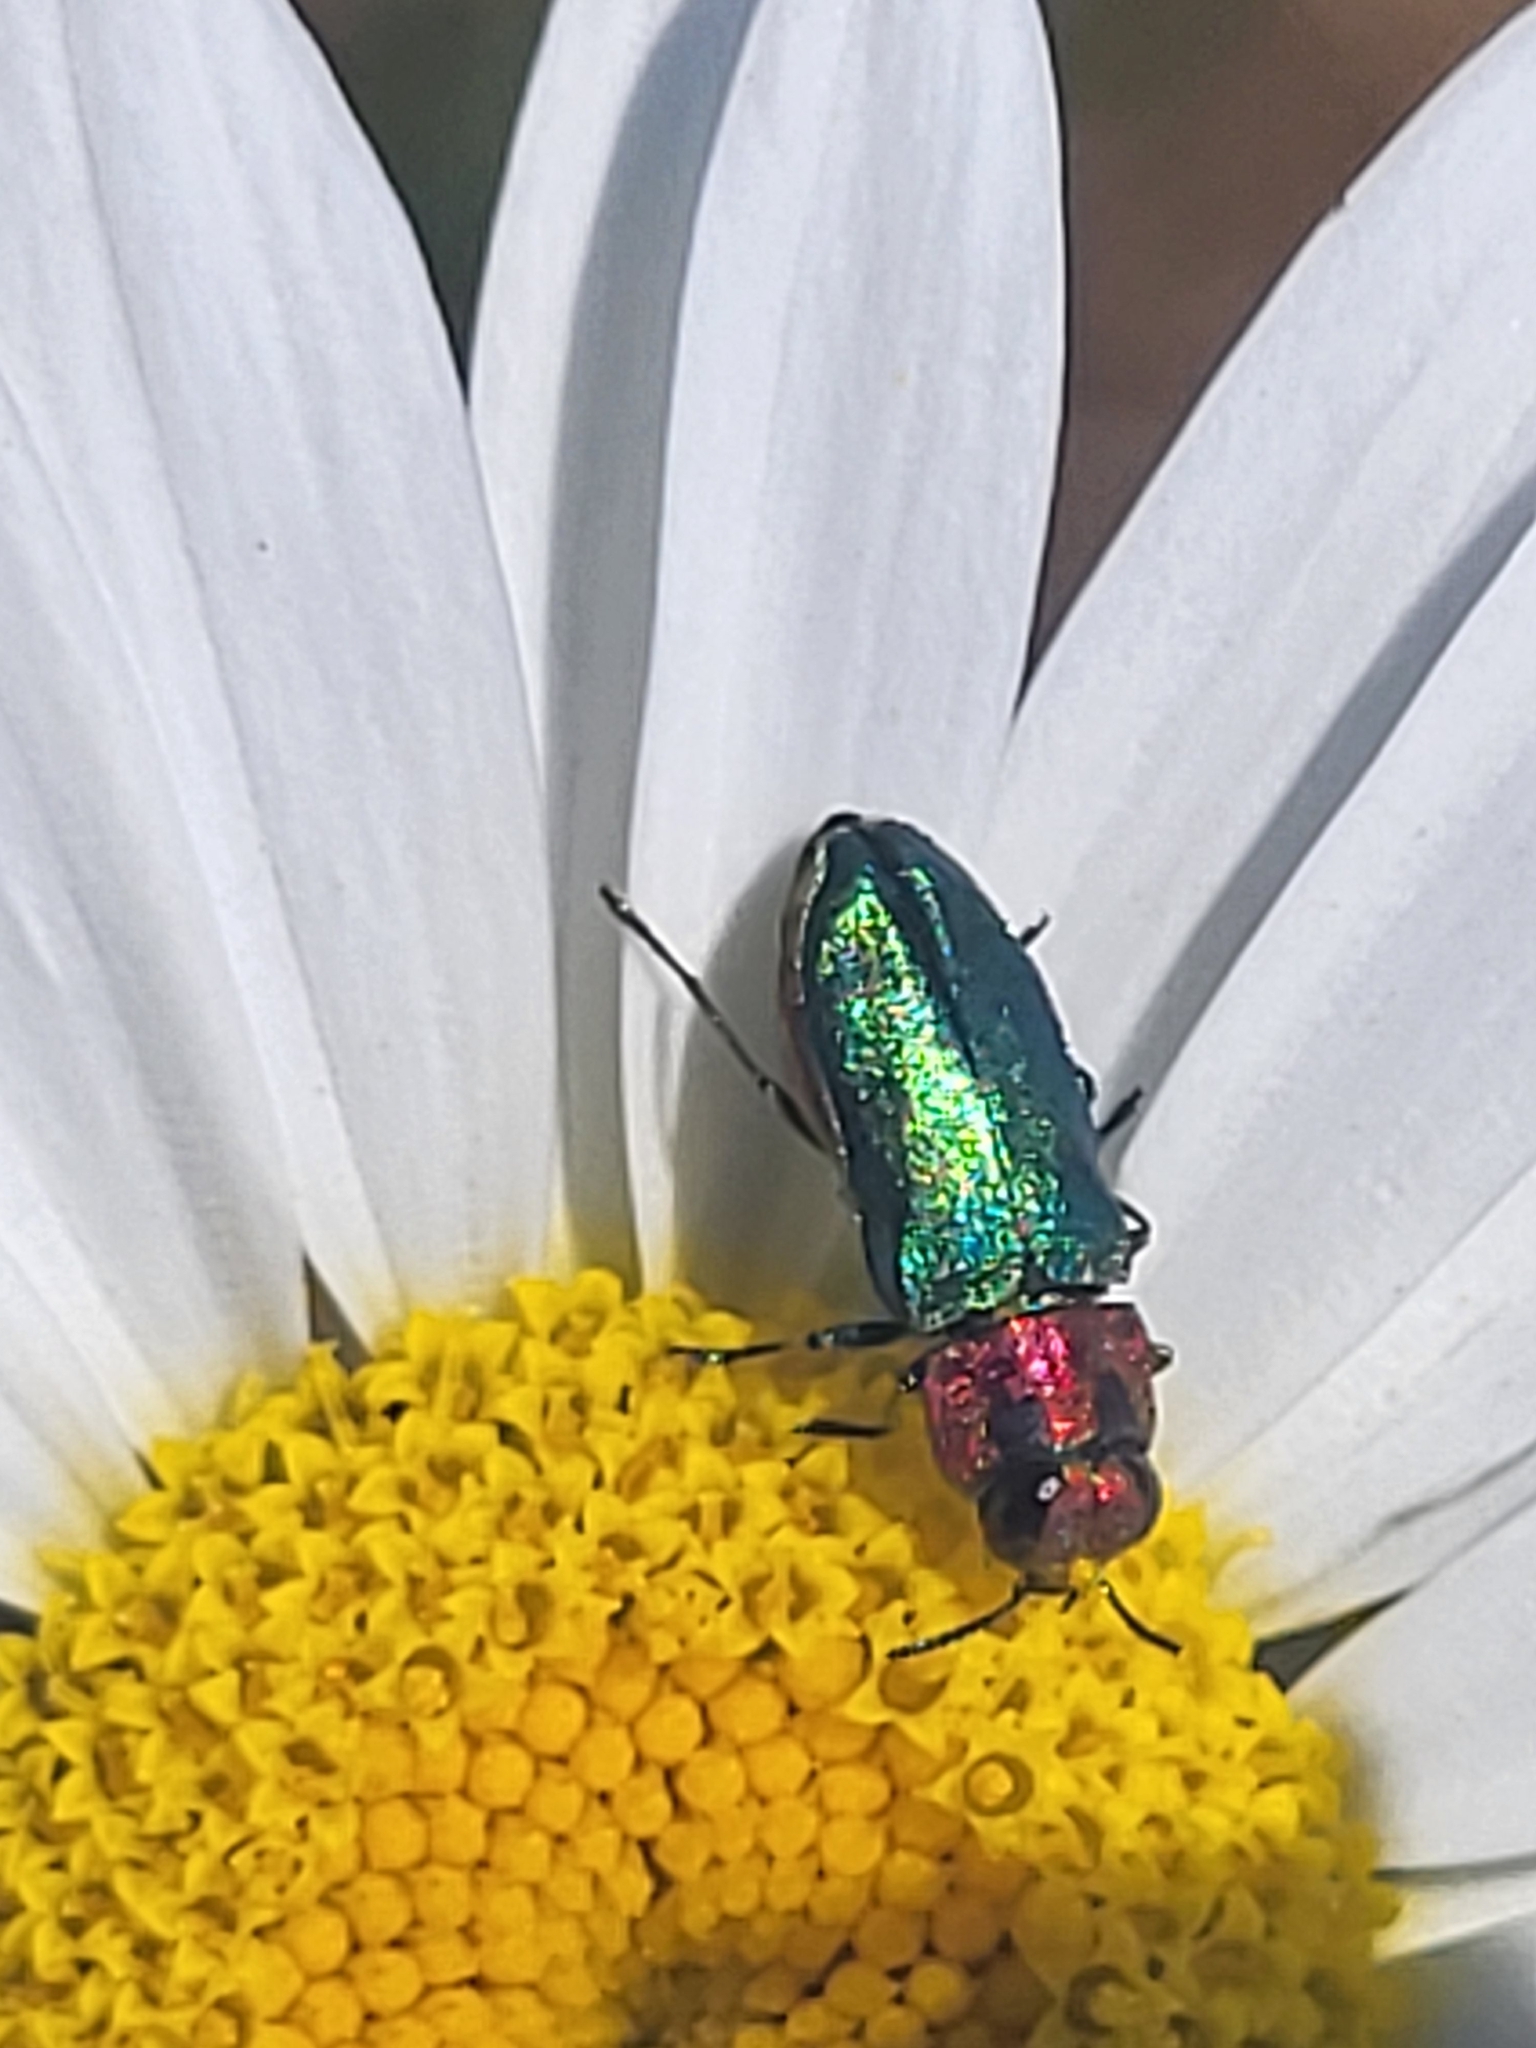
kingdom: Animalia
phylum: Arthropoda
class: Insecta
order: Coleoptera
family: Buprestidae
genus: Anthaxia
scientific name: Anthaxia nitidula
